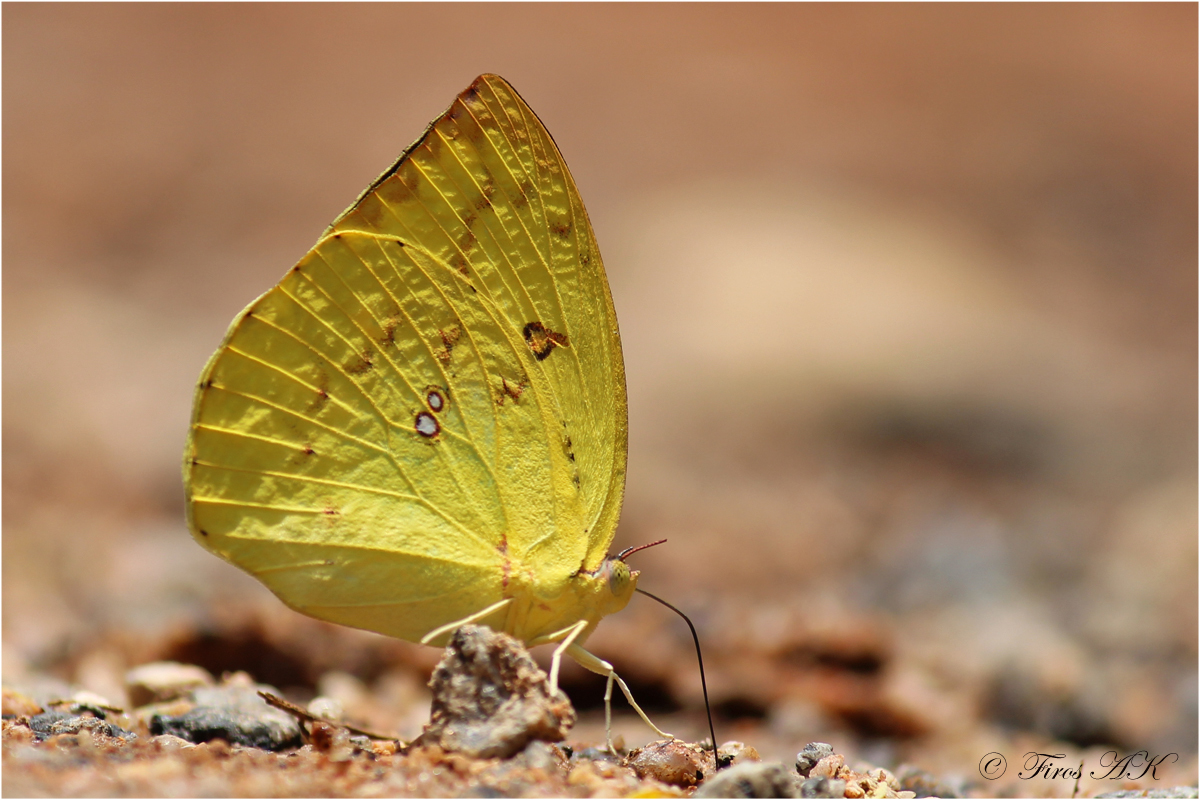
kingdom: Animalia
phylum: Arthropoda
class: Insecta
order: Lepidoptera
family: Pieridae
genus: Catopsilia
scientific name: Catopsilia pomona
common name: Common emigrant
